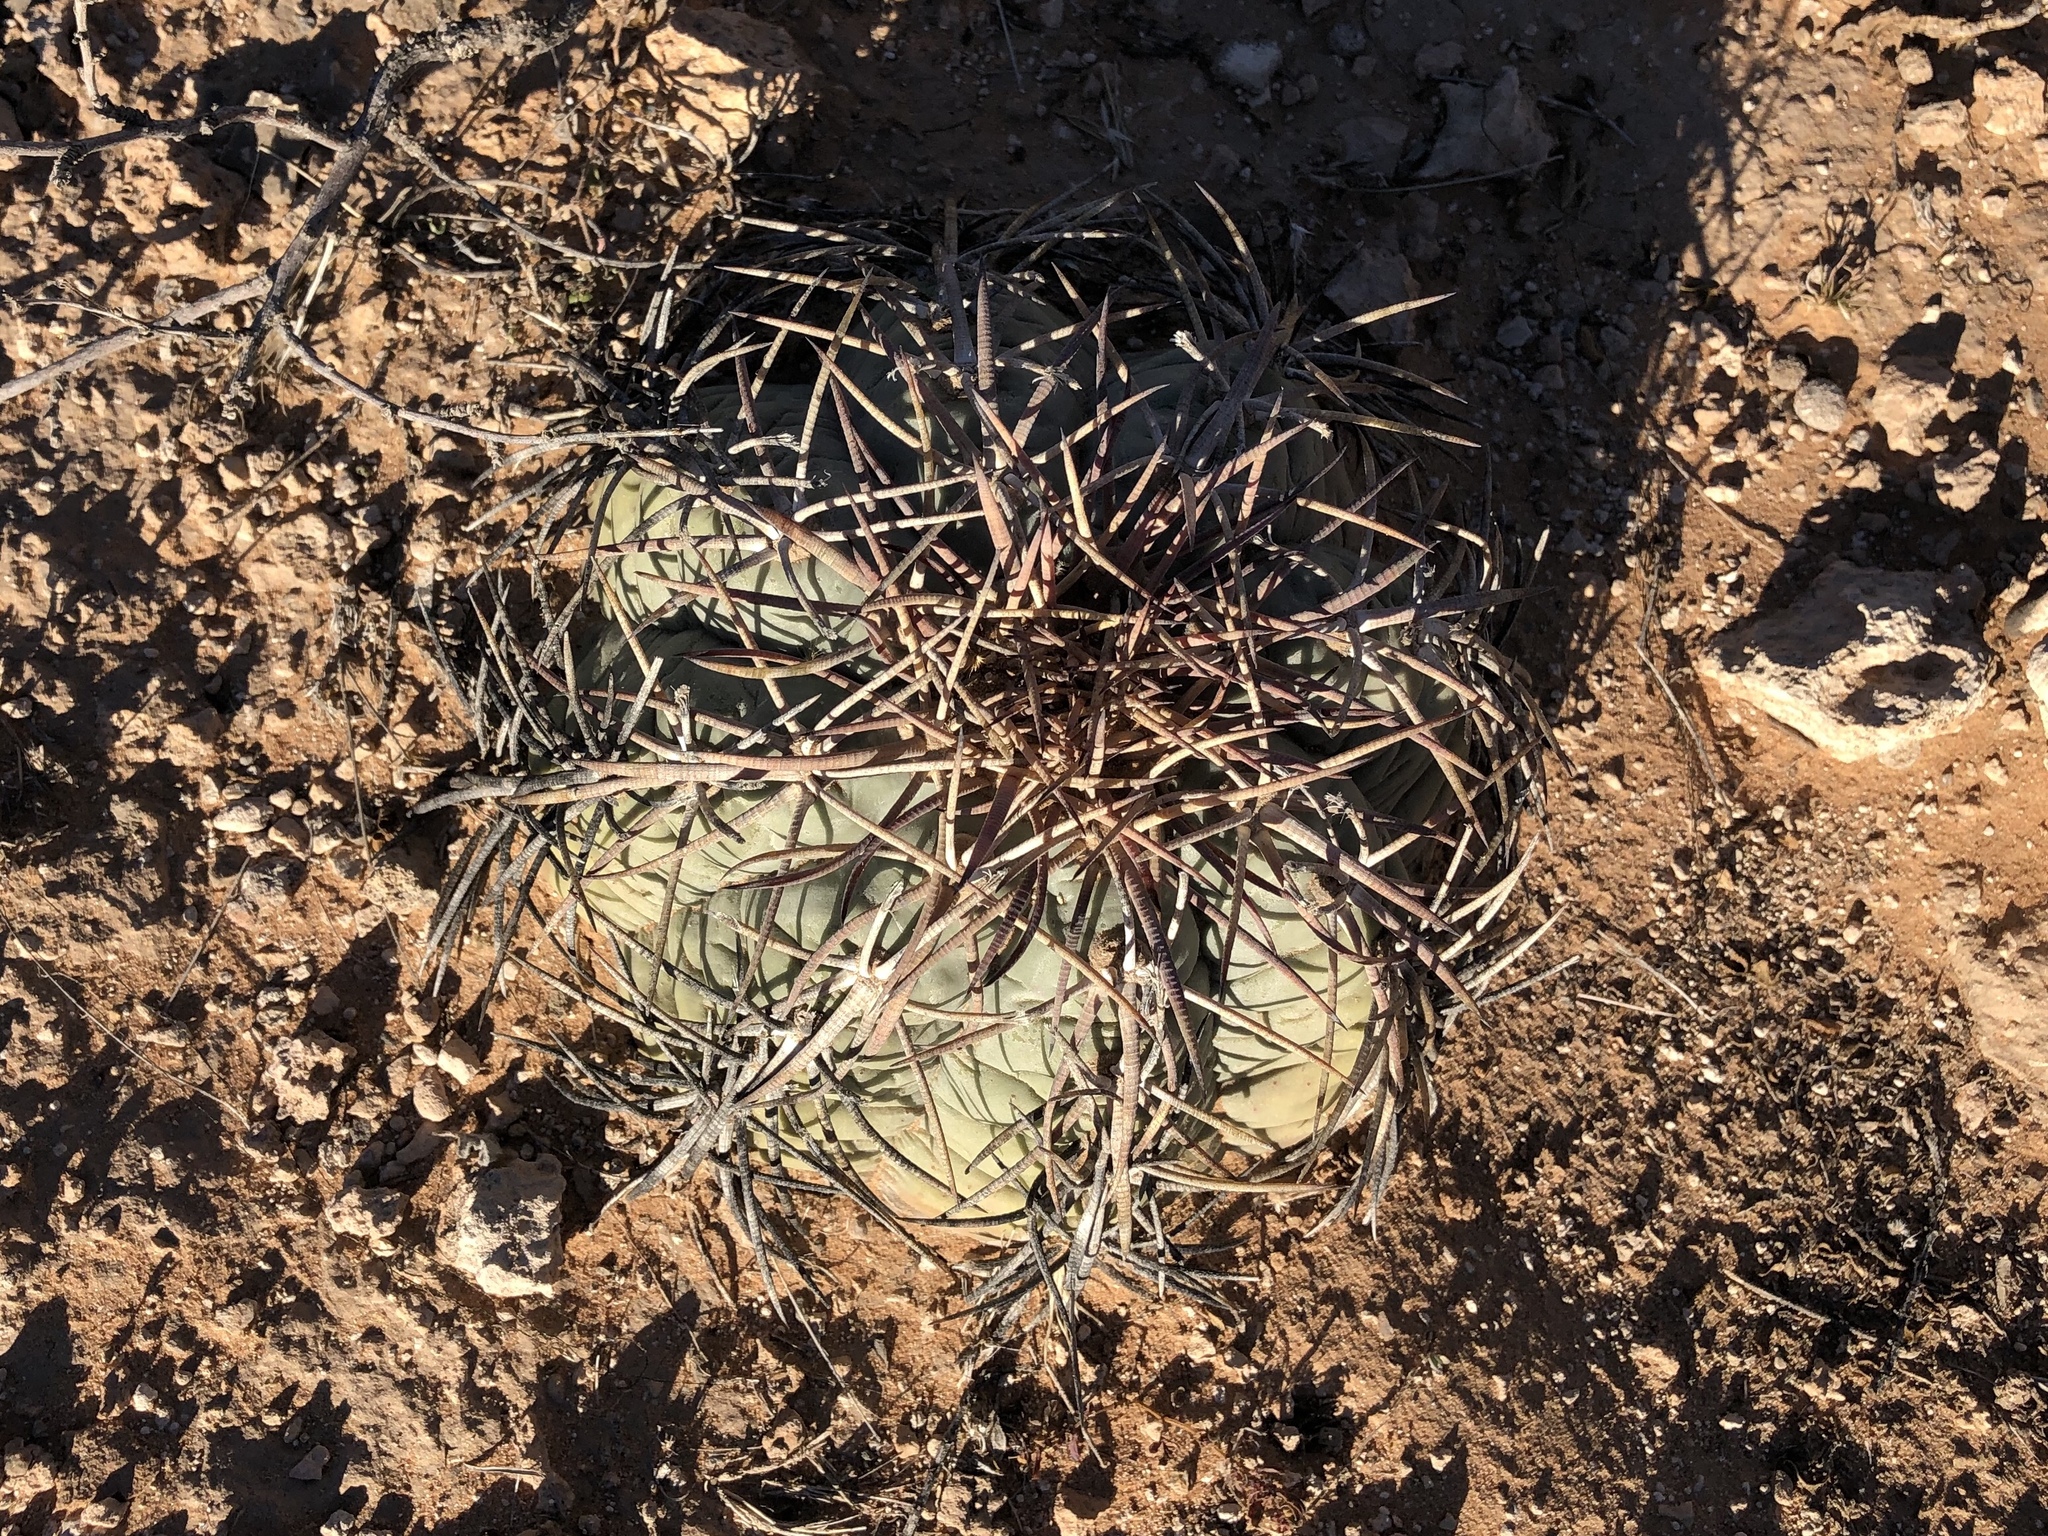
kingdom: Plantae
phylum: Tracheophyta
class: Magnoliopsida
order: Caryophyllales
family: Cactaceae
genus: Echinocactus
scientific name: Echinocactus horizonthalonius
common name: Devilshead
